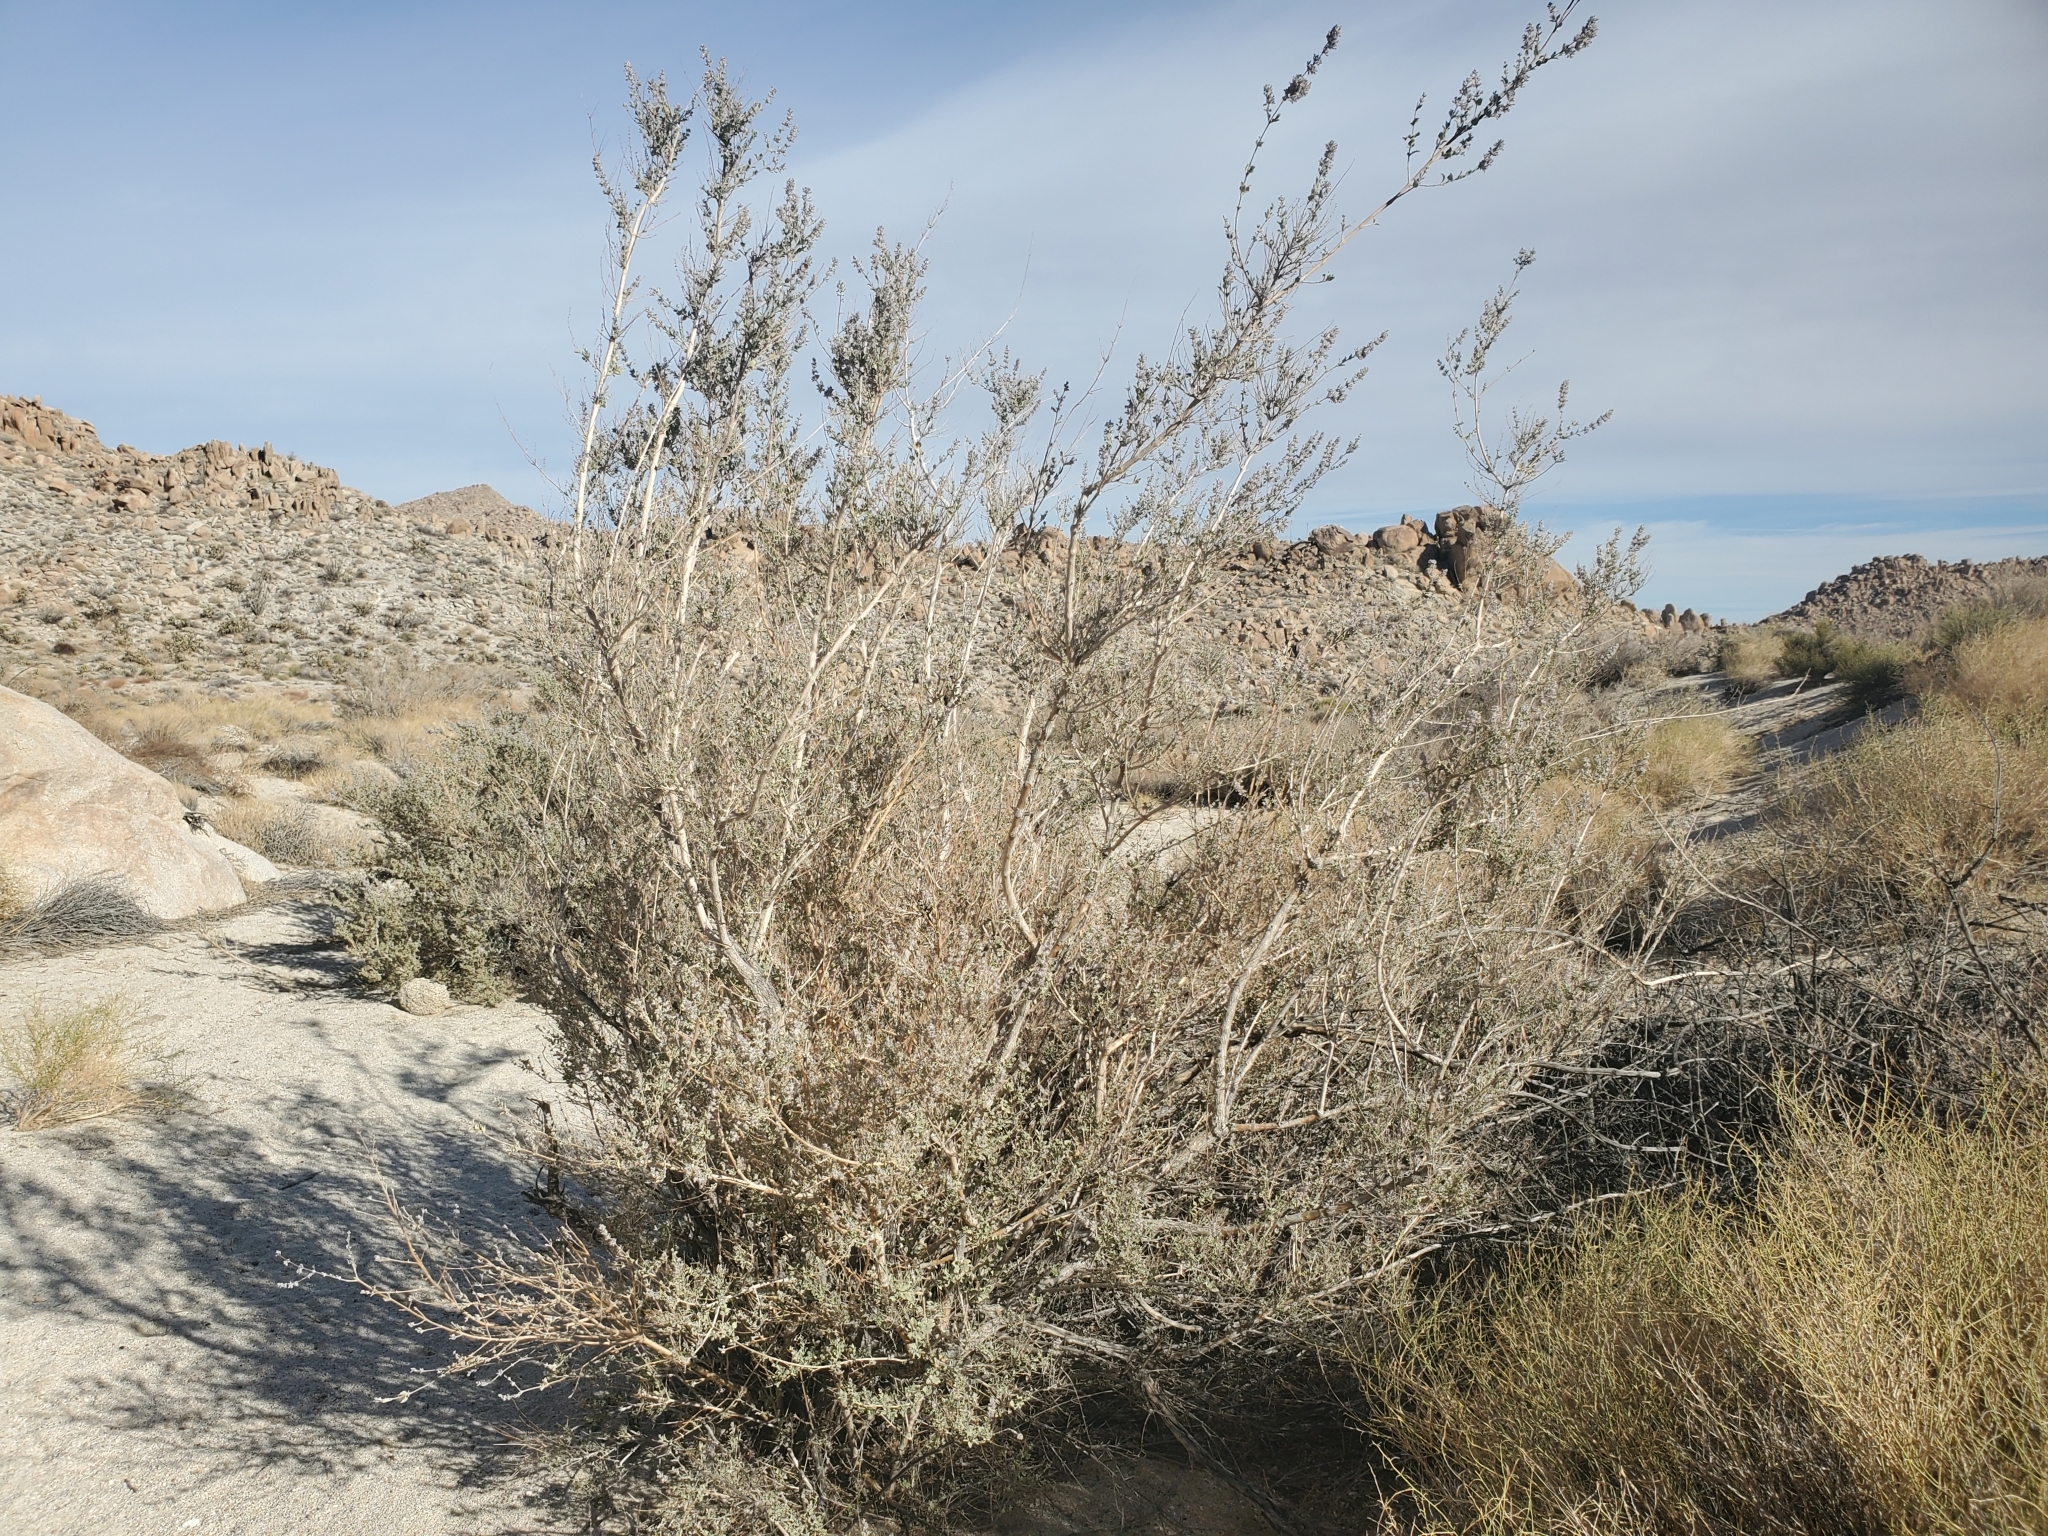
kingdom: Plantae
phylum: Tracheophyta
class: Magnoliopsida
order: Lamiales
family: Lamiaceae
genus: Condea
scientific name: Condea emoryi
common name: Chia
